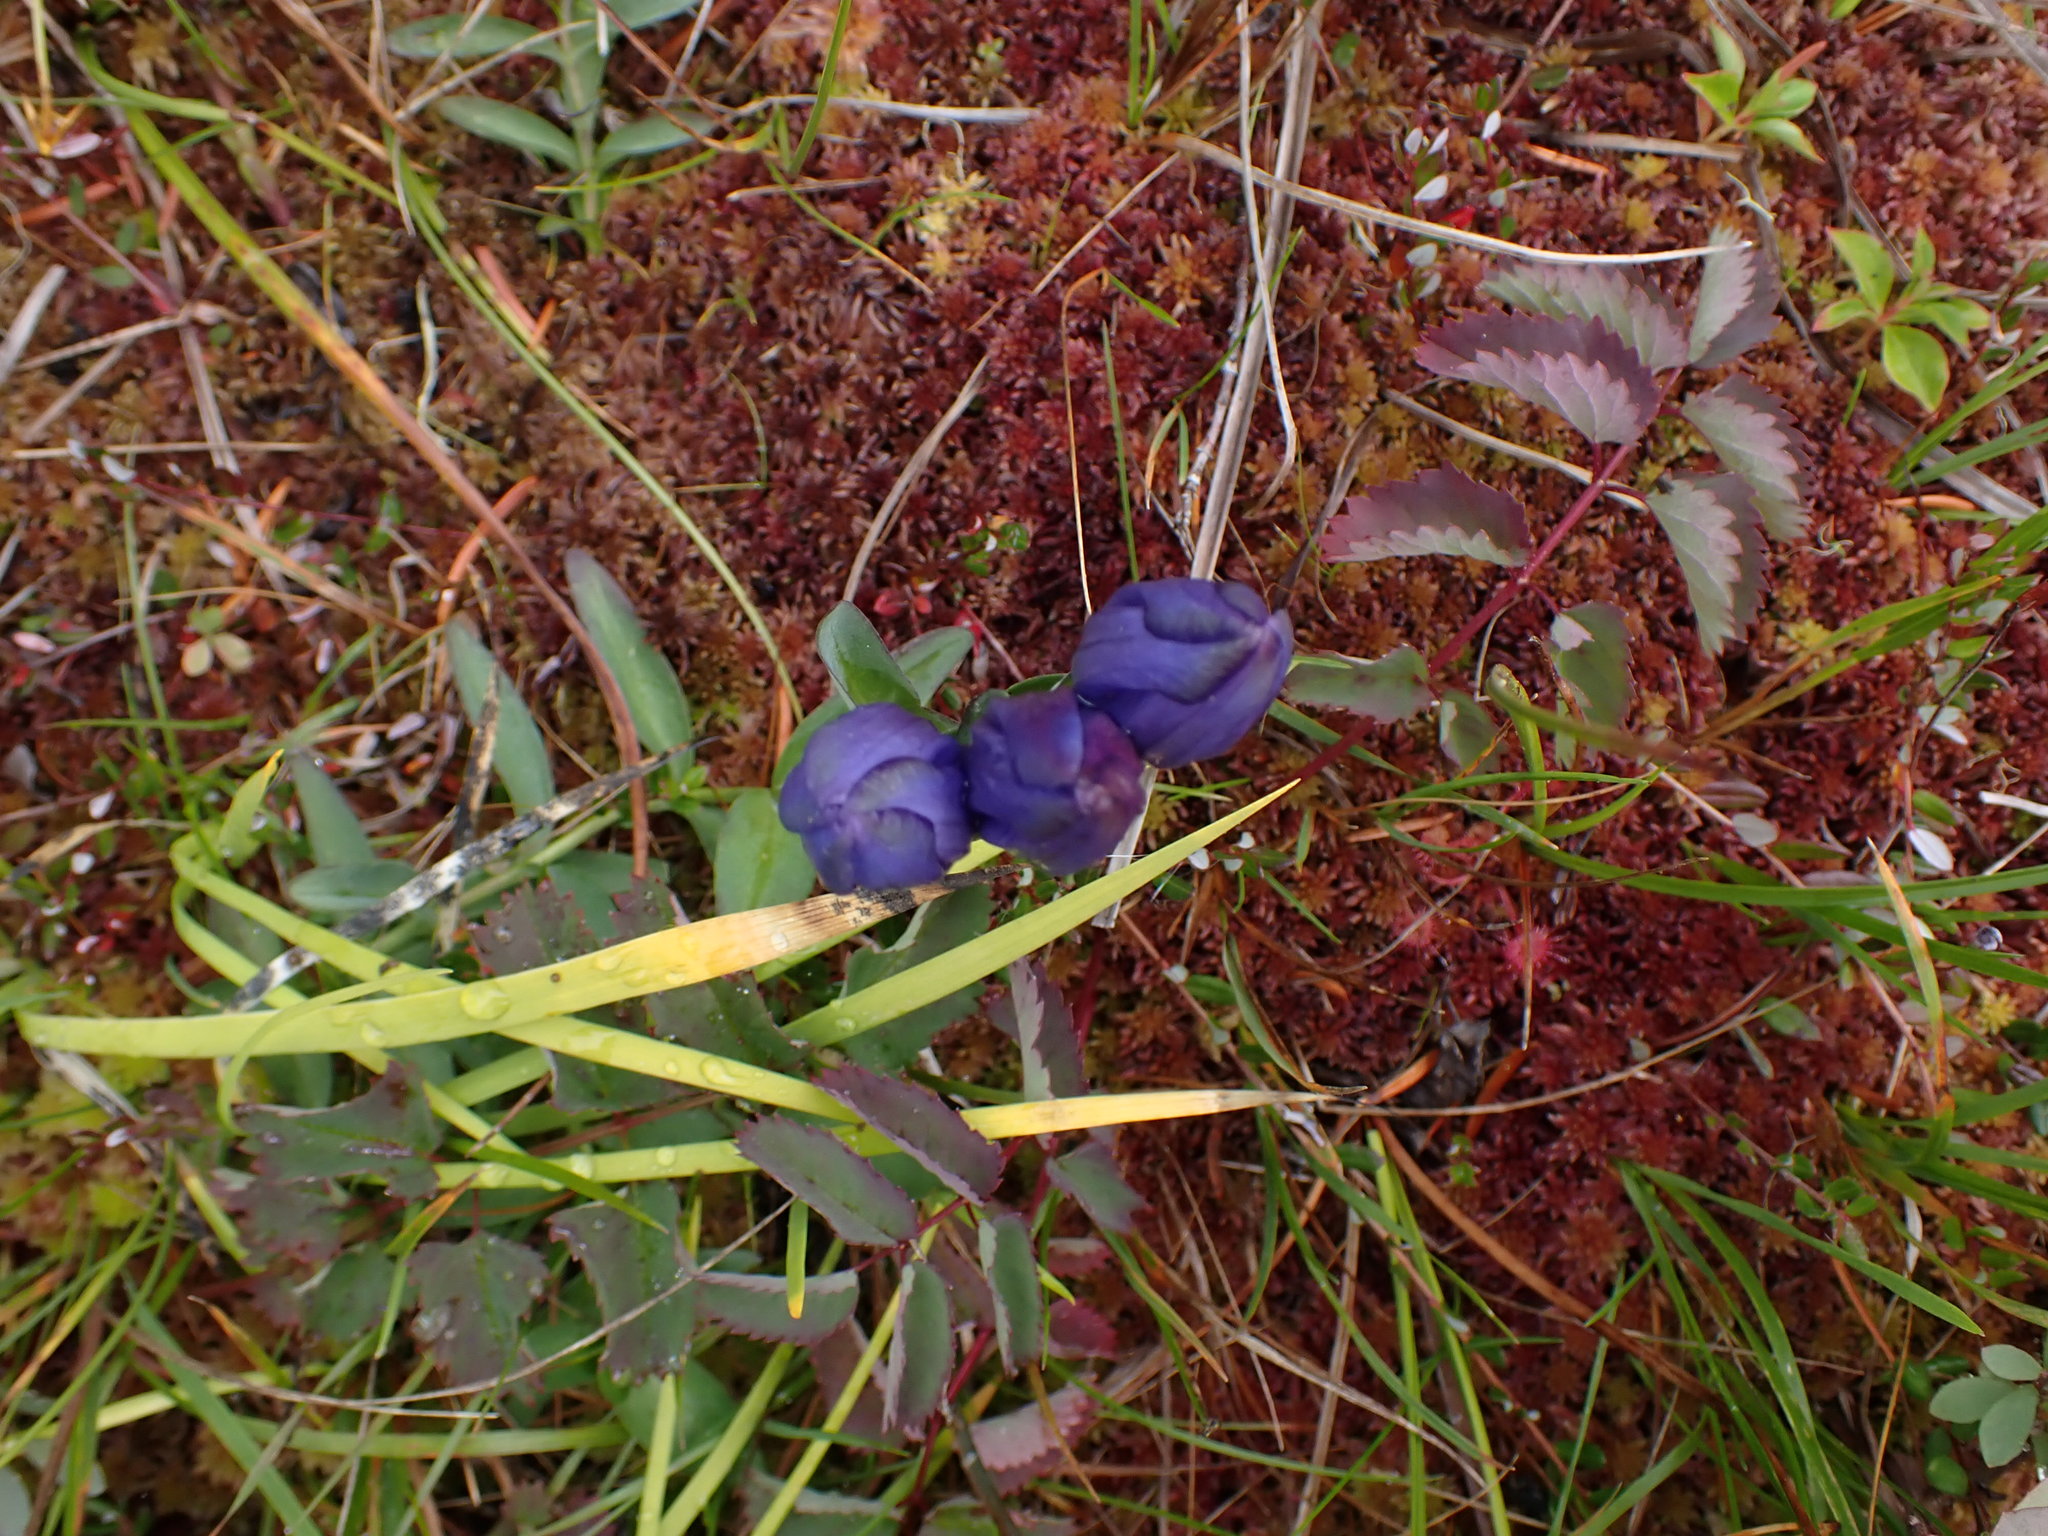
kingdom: Plantae
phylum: Tracheophyta
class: Magnoliopsida
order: Gentianales
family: Gentianaceae
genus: Gentiana
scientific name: Gentiana sceptrum
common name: Pacific gentian
